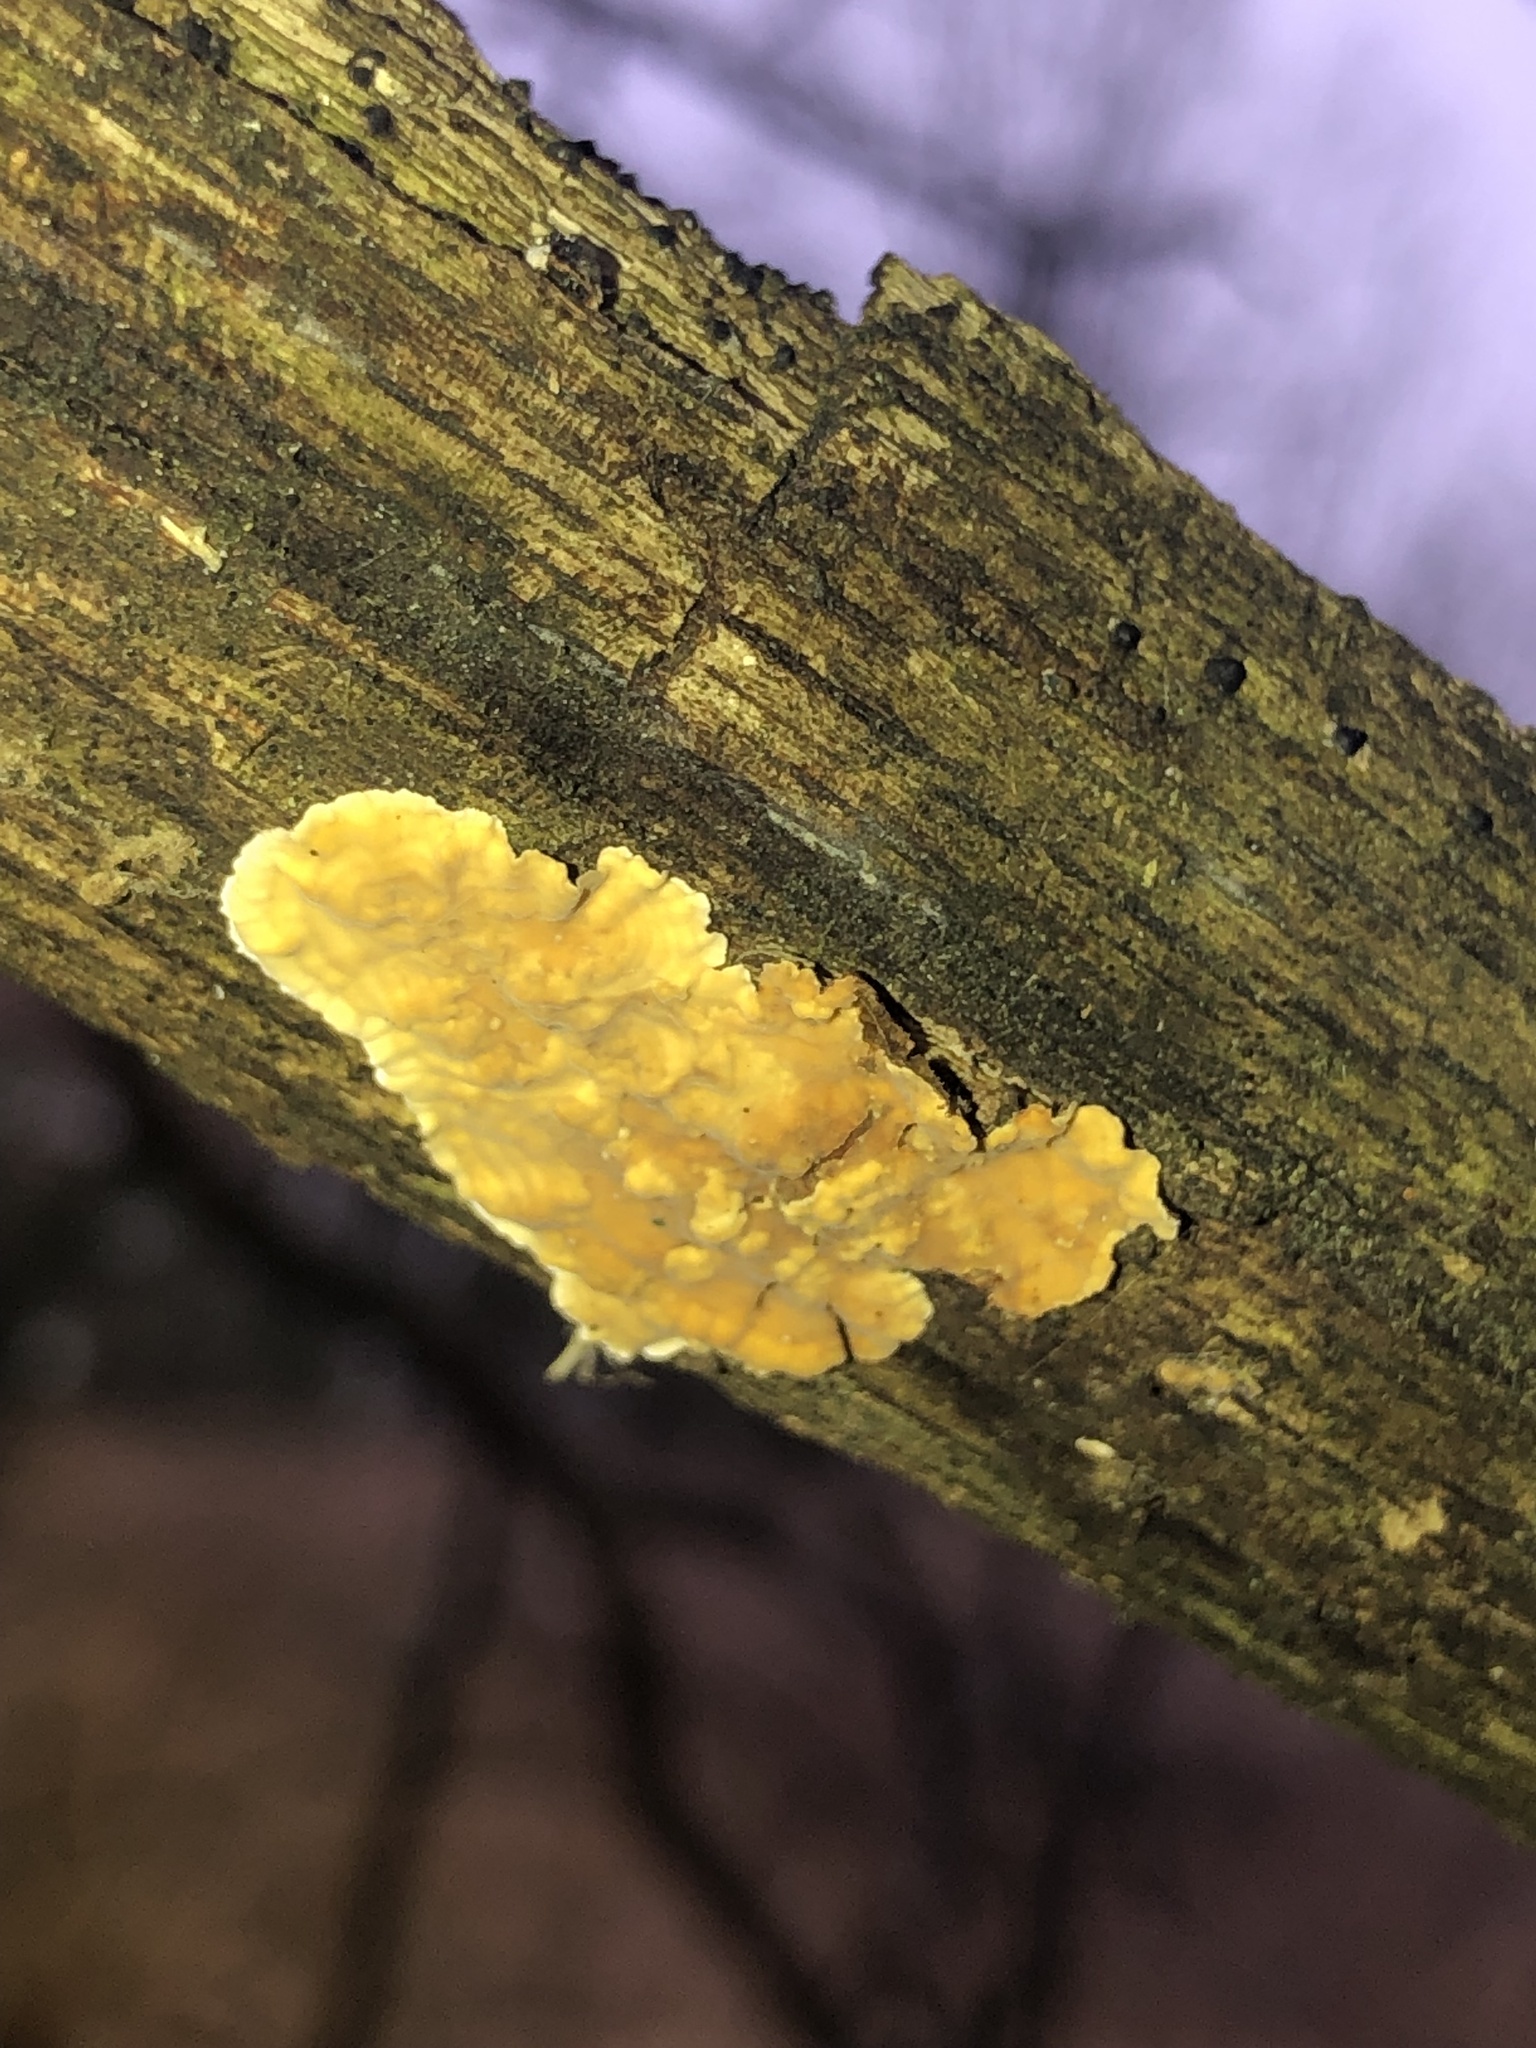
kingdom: Fungi
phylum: Basidiomycota
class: Agaricomycetes
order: Russulales
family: Stereaceae
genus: Stereum
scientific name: Stereum complicatum
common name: Crowded parchment
